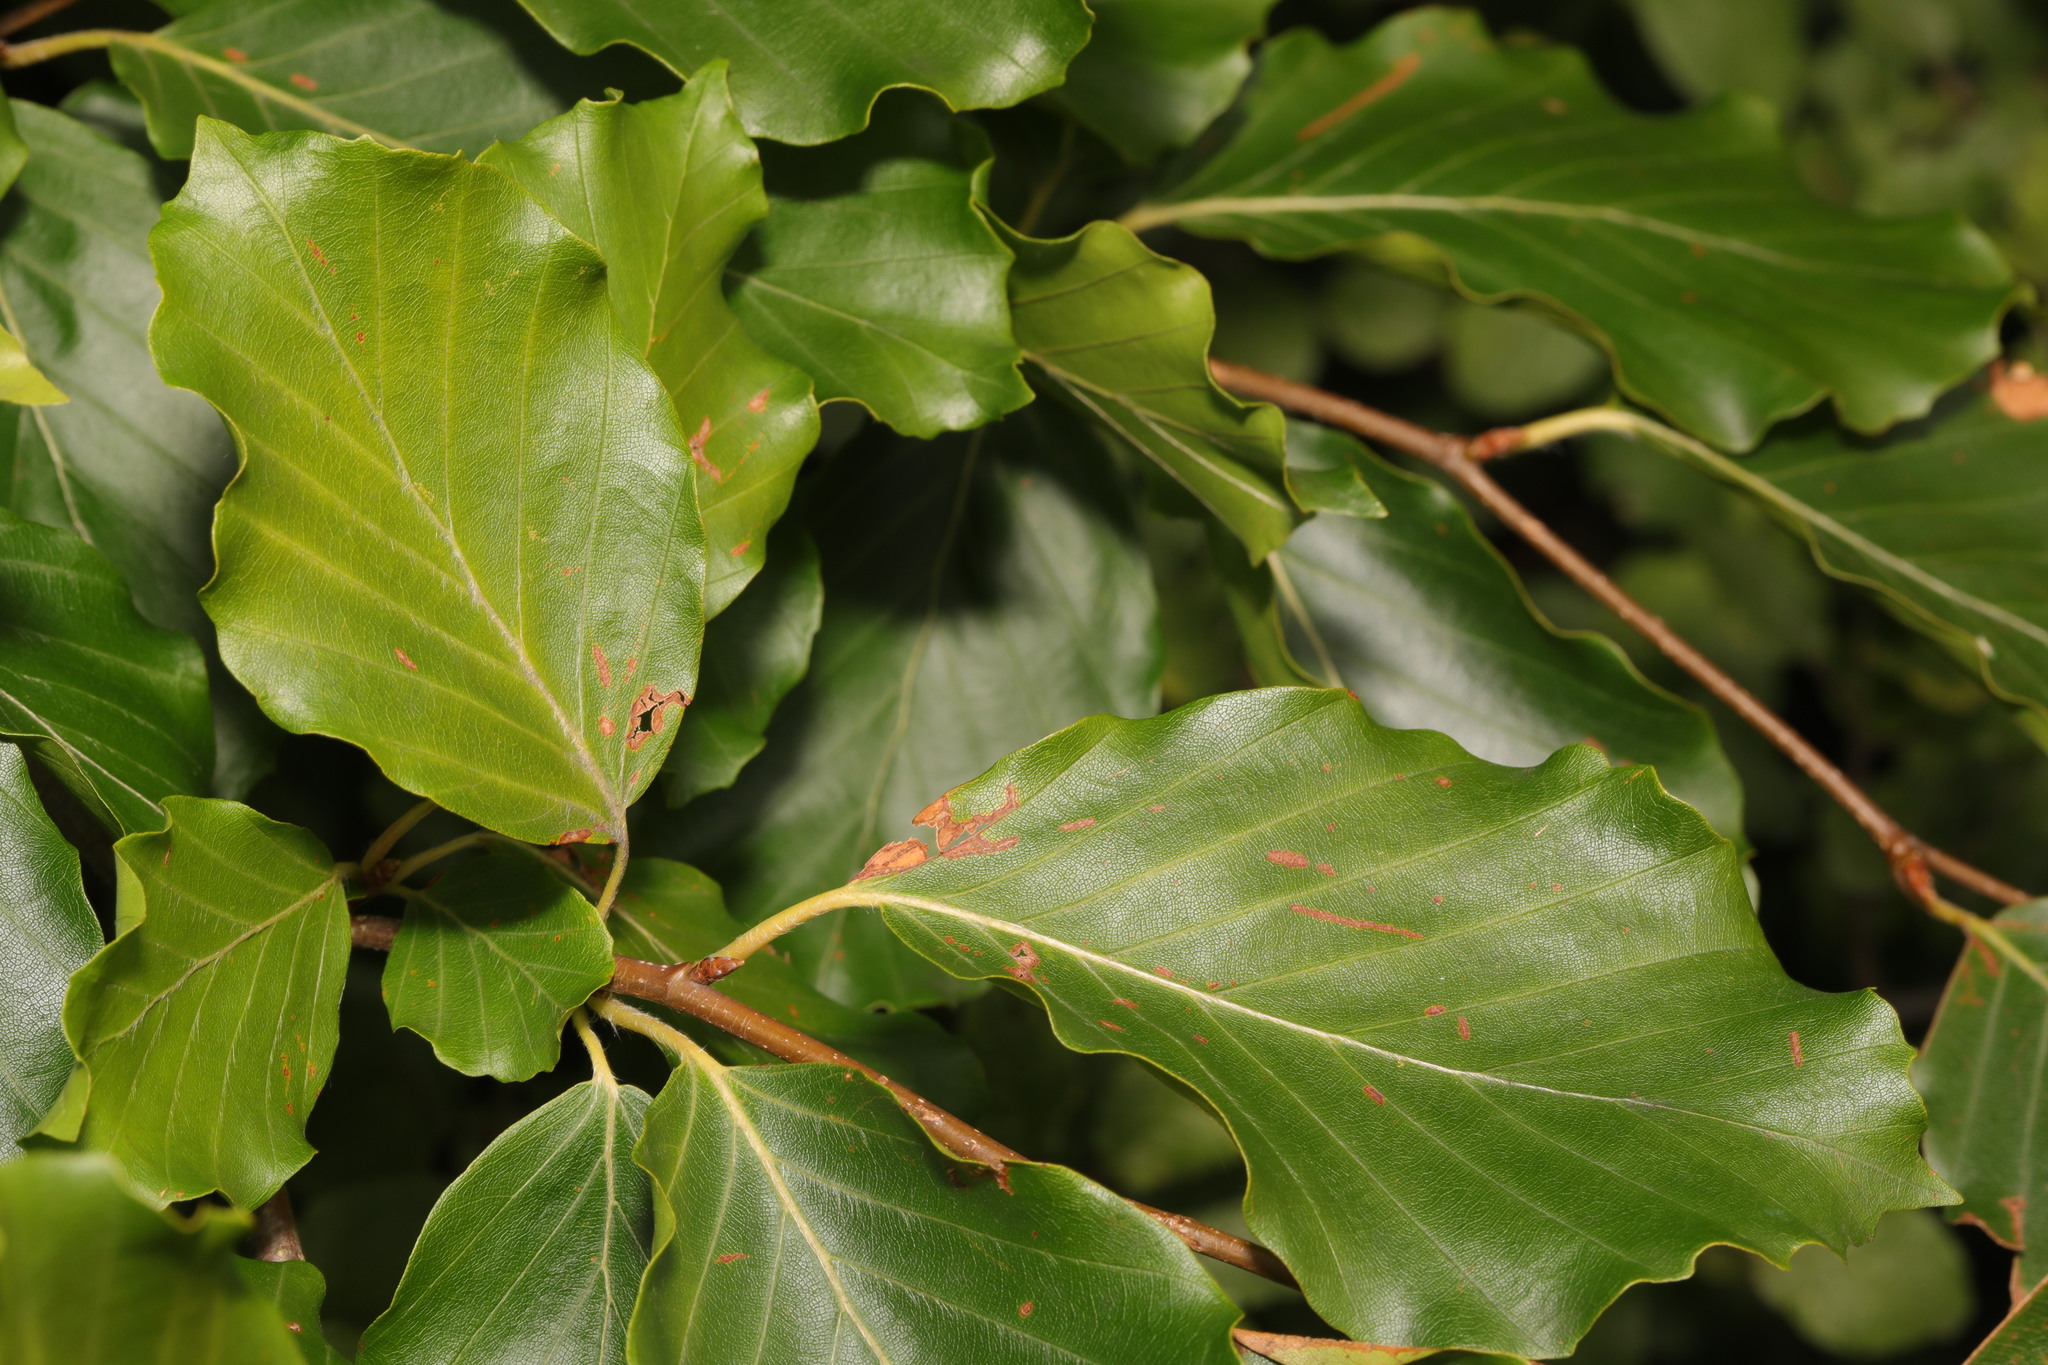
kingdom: Plantae
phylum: Tracheophyta
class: Magnoliopsida
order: Fagales
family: Fagaceae
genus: Fagus
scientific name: Fagus sylvatica
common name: Beech
